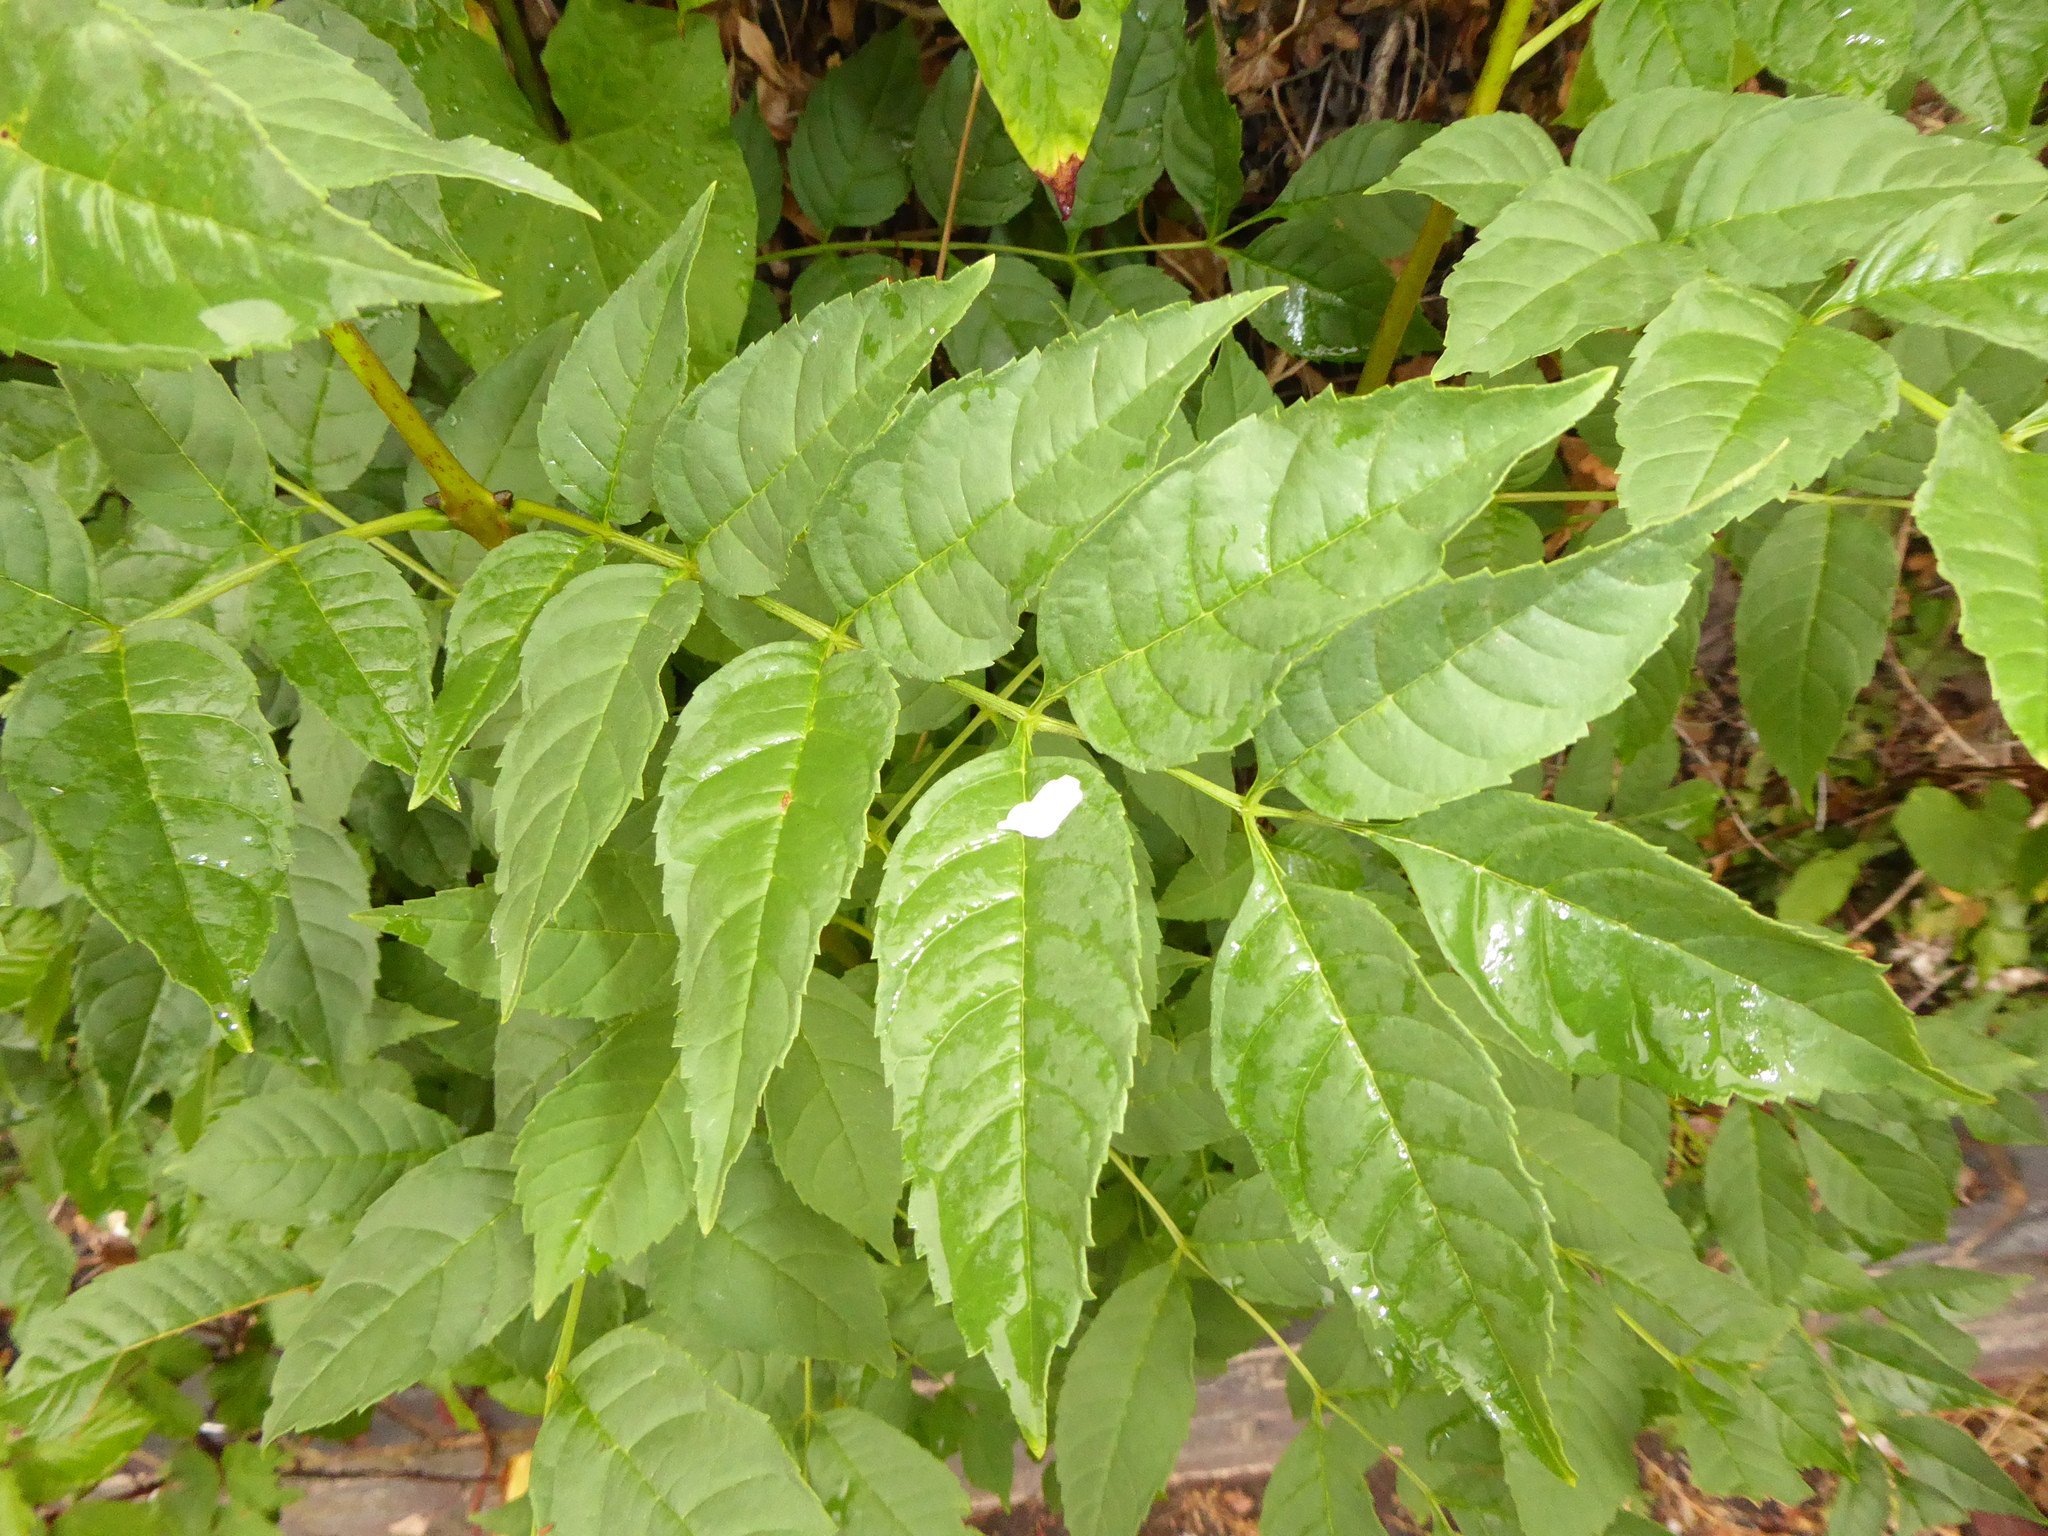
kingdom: Plantae
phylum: Tracheophyta
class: Magnoliopsida
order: Lamiales
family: Oleaceae
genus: Fraxinus
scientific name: Fraxinus excelsior
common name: European ash
